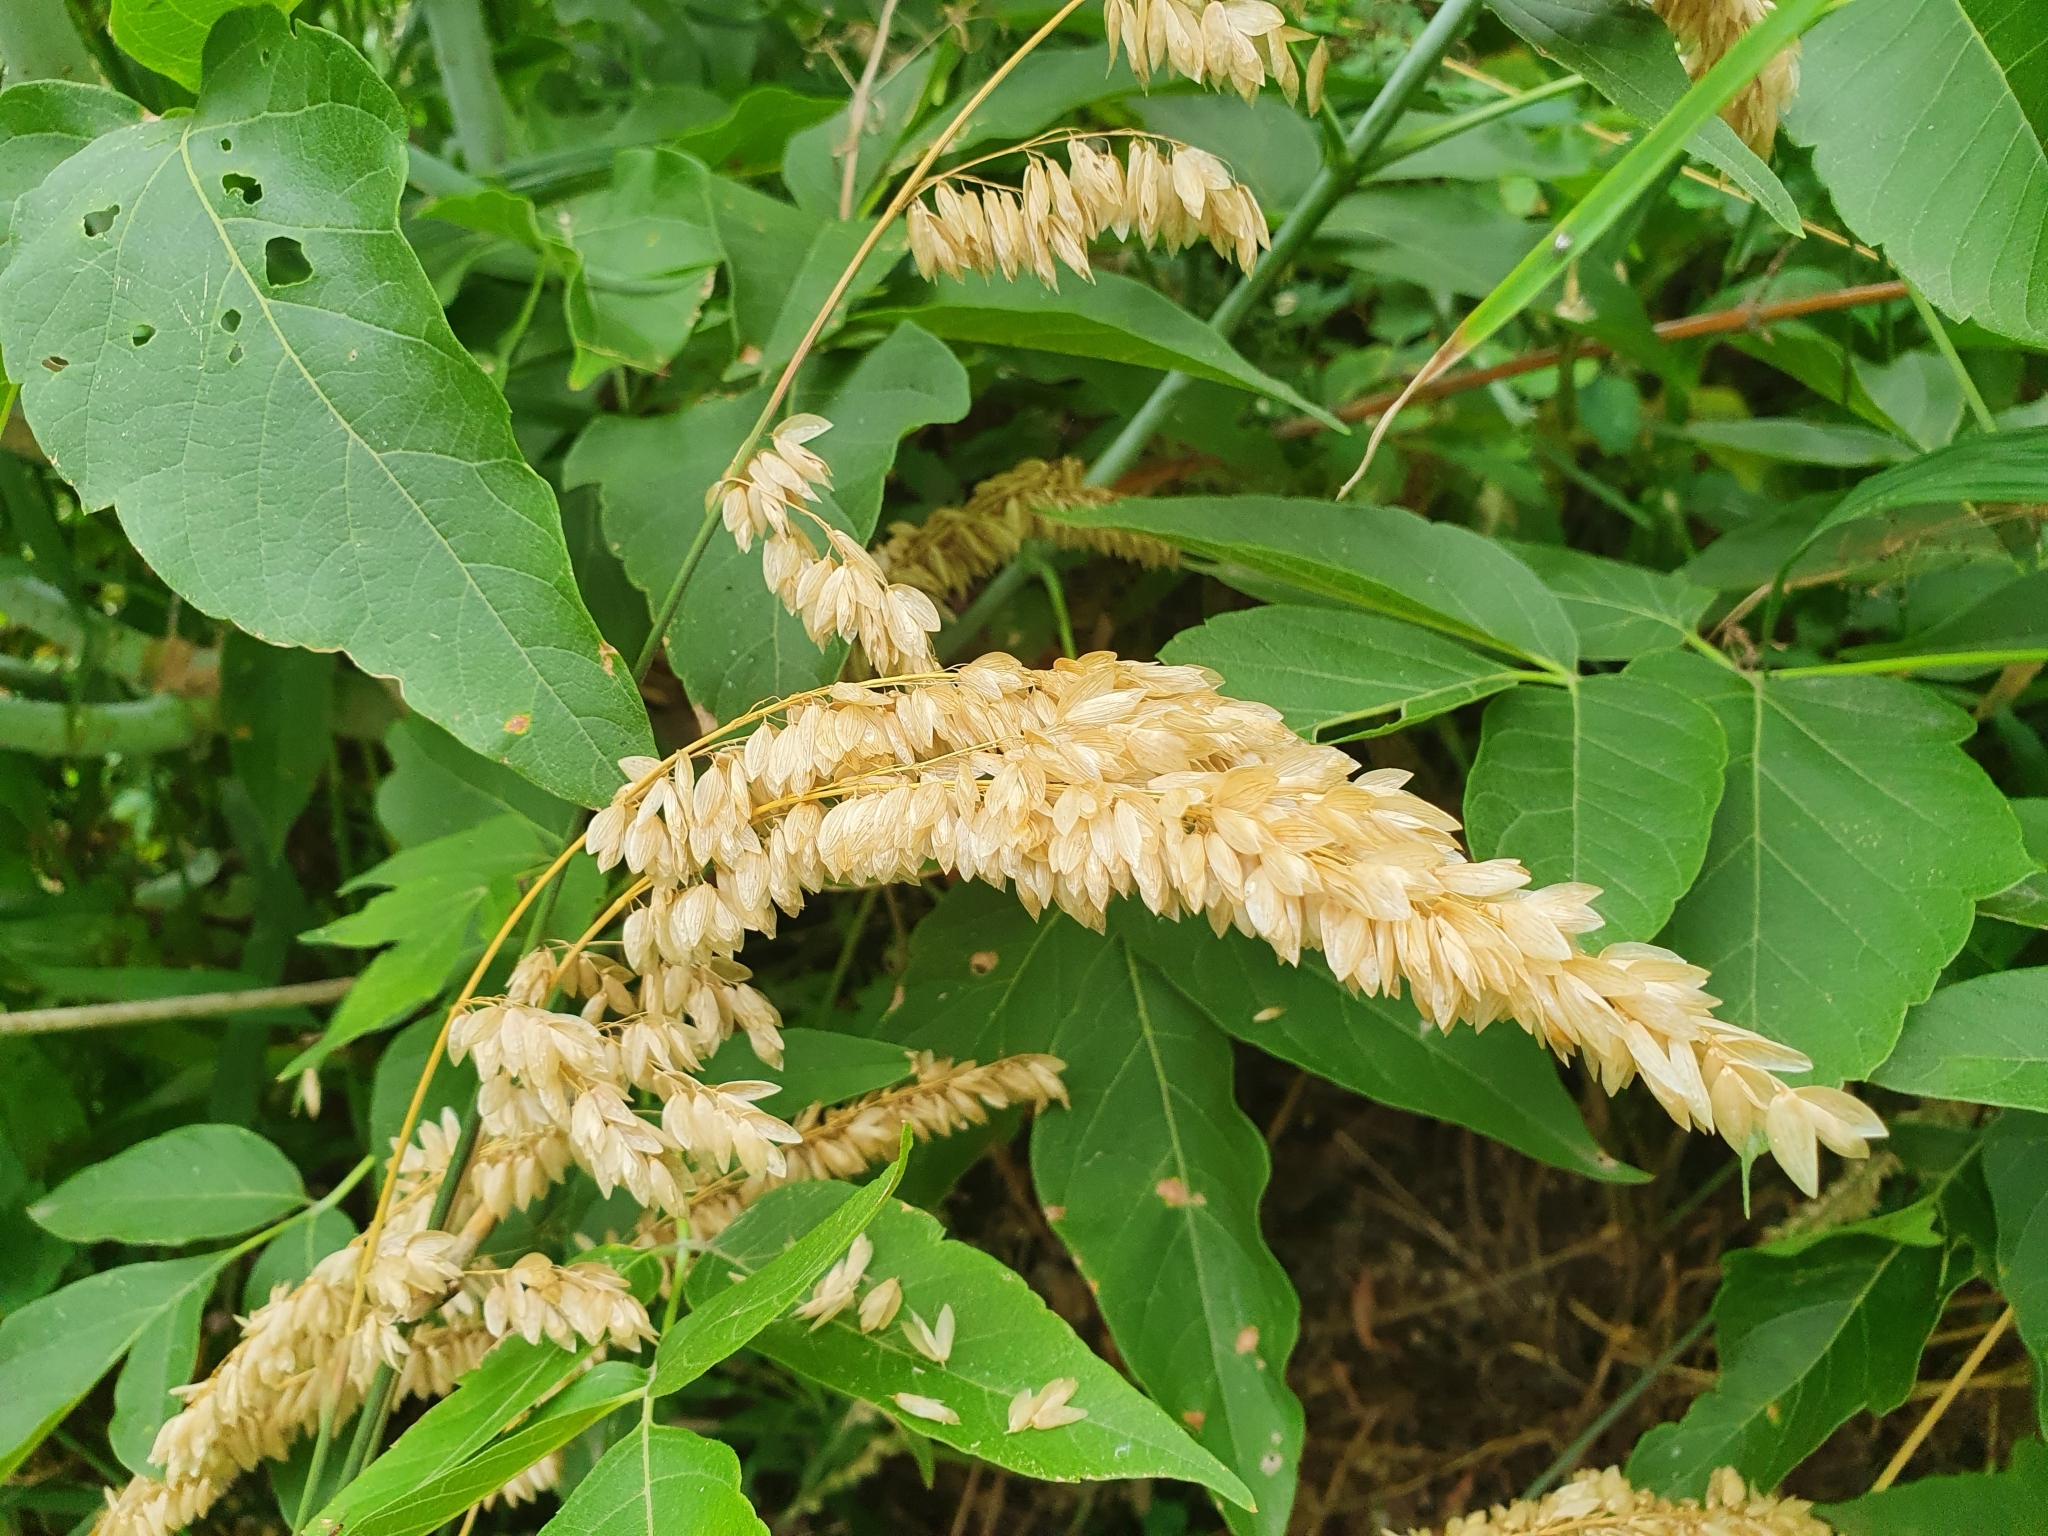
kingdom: Plantae
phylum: Tracheophyta
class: Liliopsida
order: Poales
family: Poaceae
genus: Melica
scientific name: Melica altissima
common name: Siberian melicgrass
